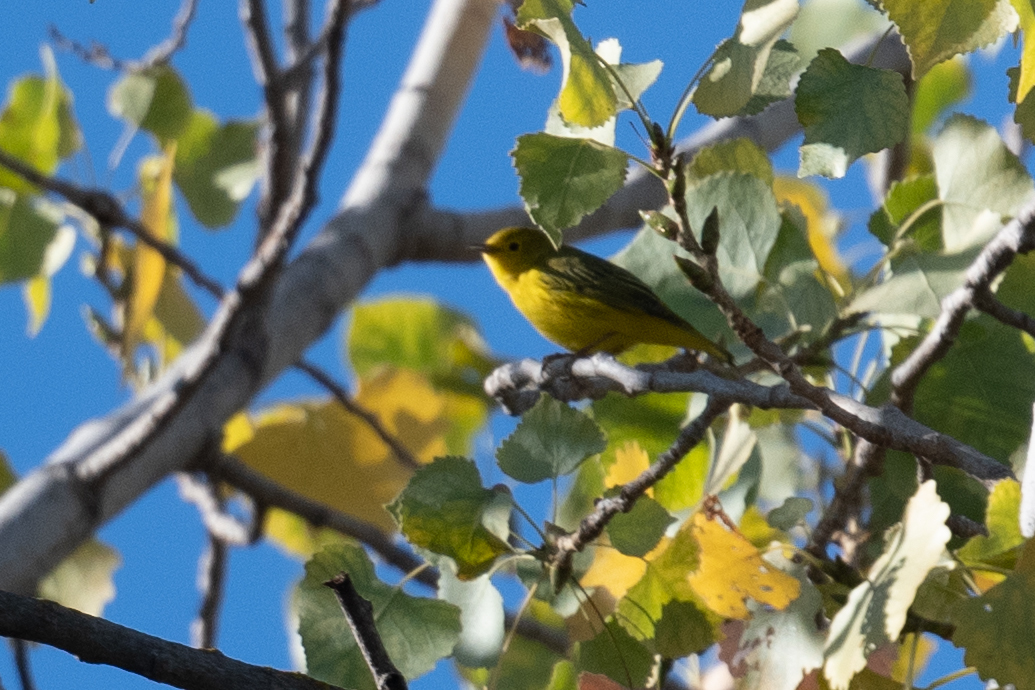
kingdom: Animalia
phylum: Chordata
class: Aves
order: Passeriformes
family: Parulidae
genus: Setophaga
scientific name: Setophaga petechia
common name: Yellow warbler
